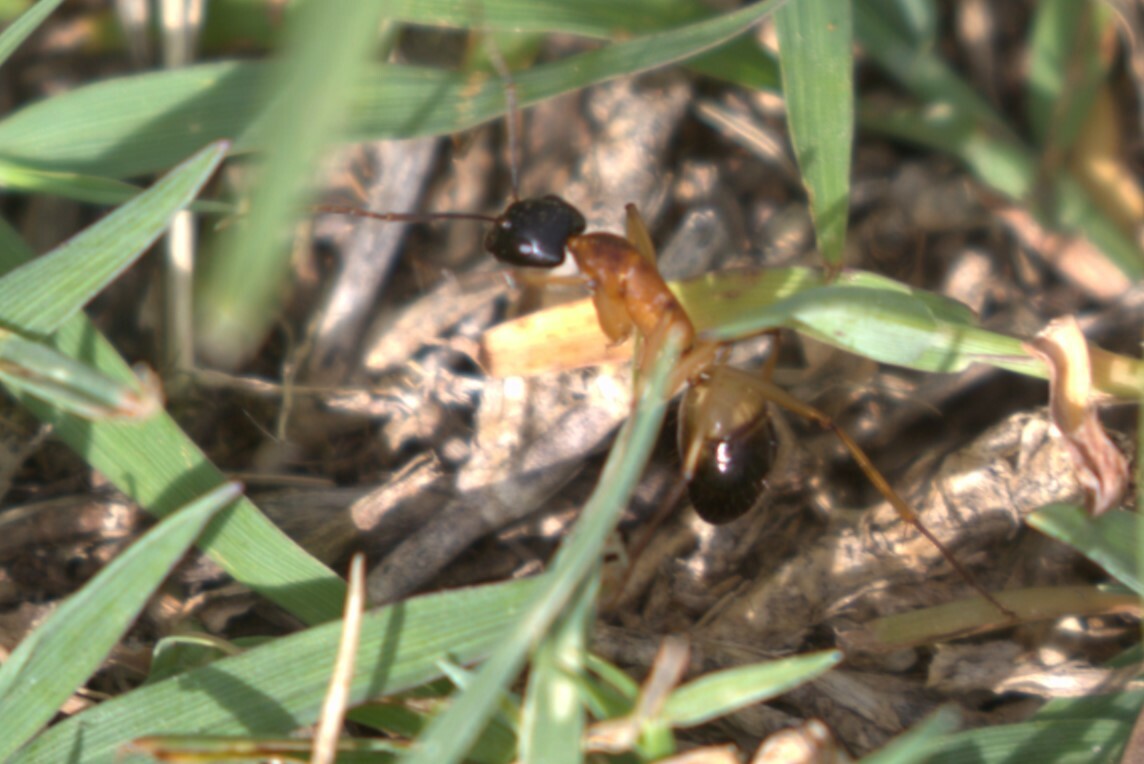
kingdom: Animalia
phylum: Arthropoda
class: Insecta
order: Hymenoptera
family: Formicidae
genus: Camponotus
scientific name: Camponotus consobrinus
